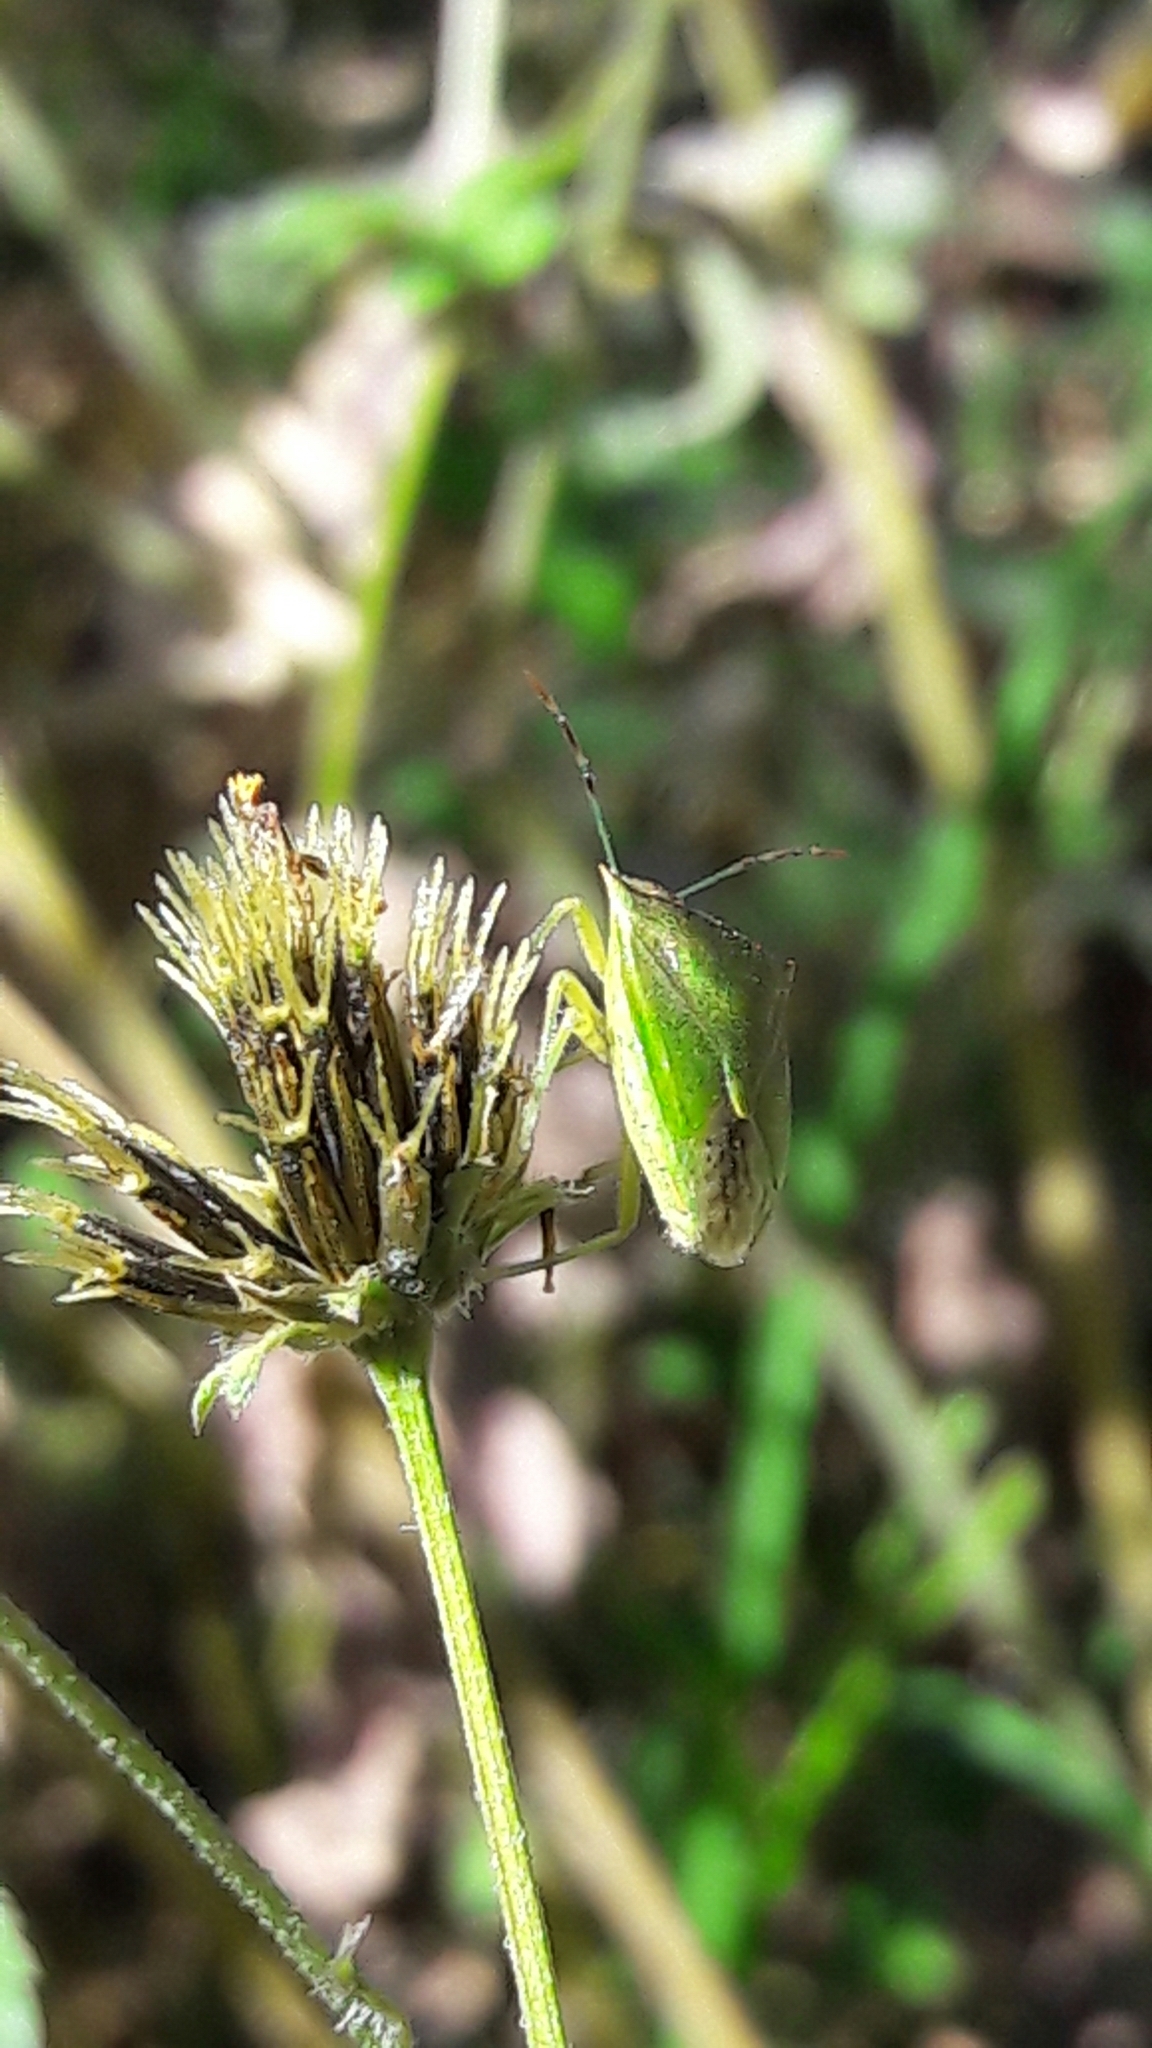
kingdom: Animalia
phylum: Arthropoda
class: Insecta
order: Hemiptera
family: Pentatomidae
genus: Thyanta
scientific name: Thyanta perditor
